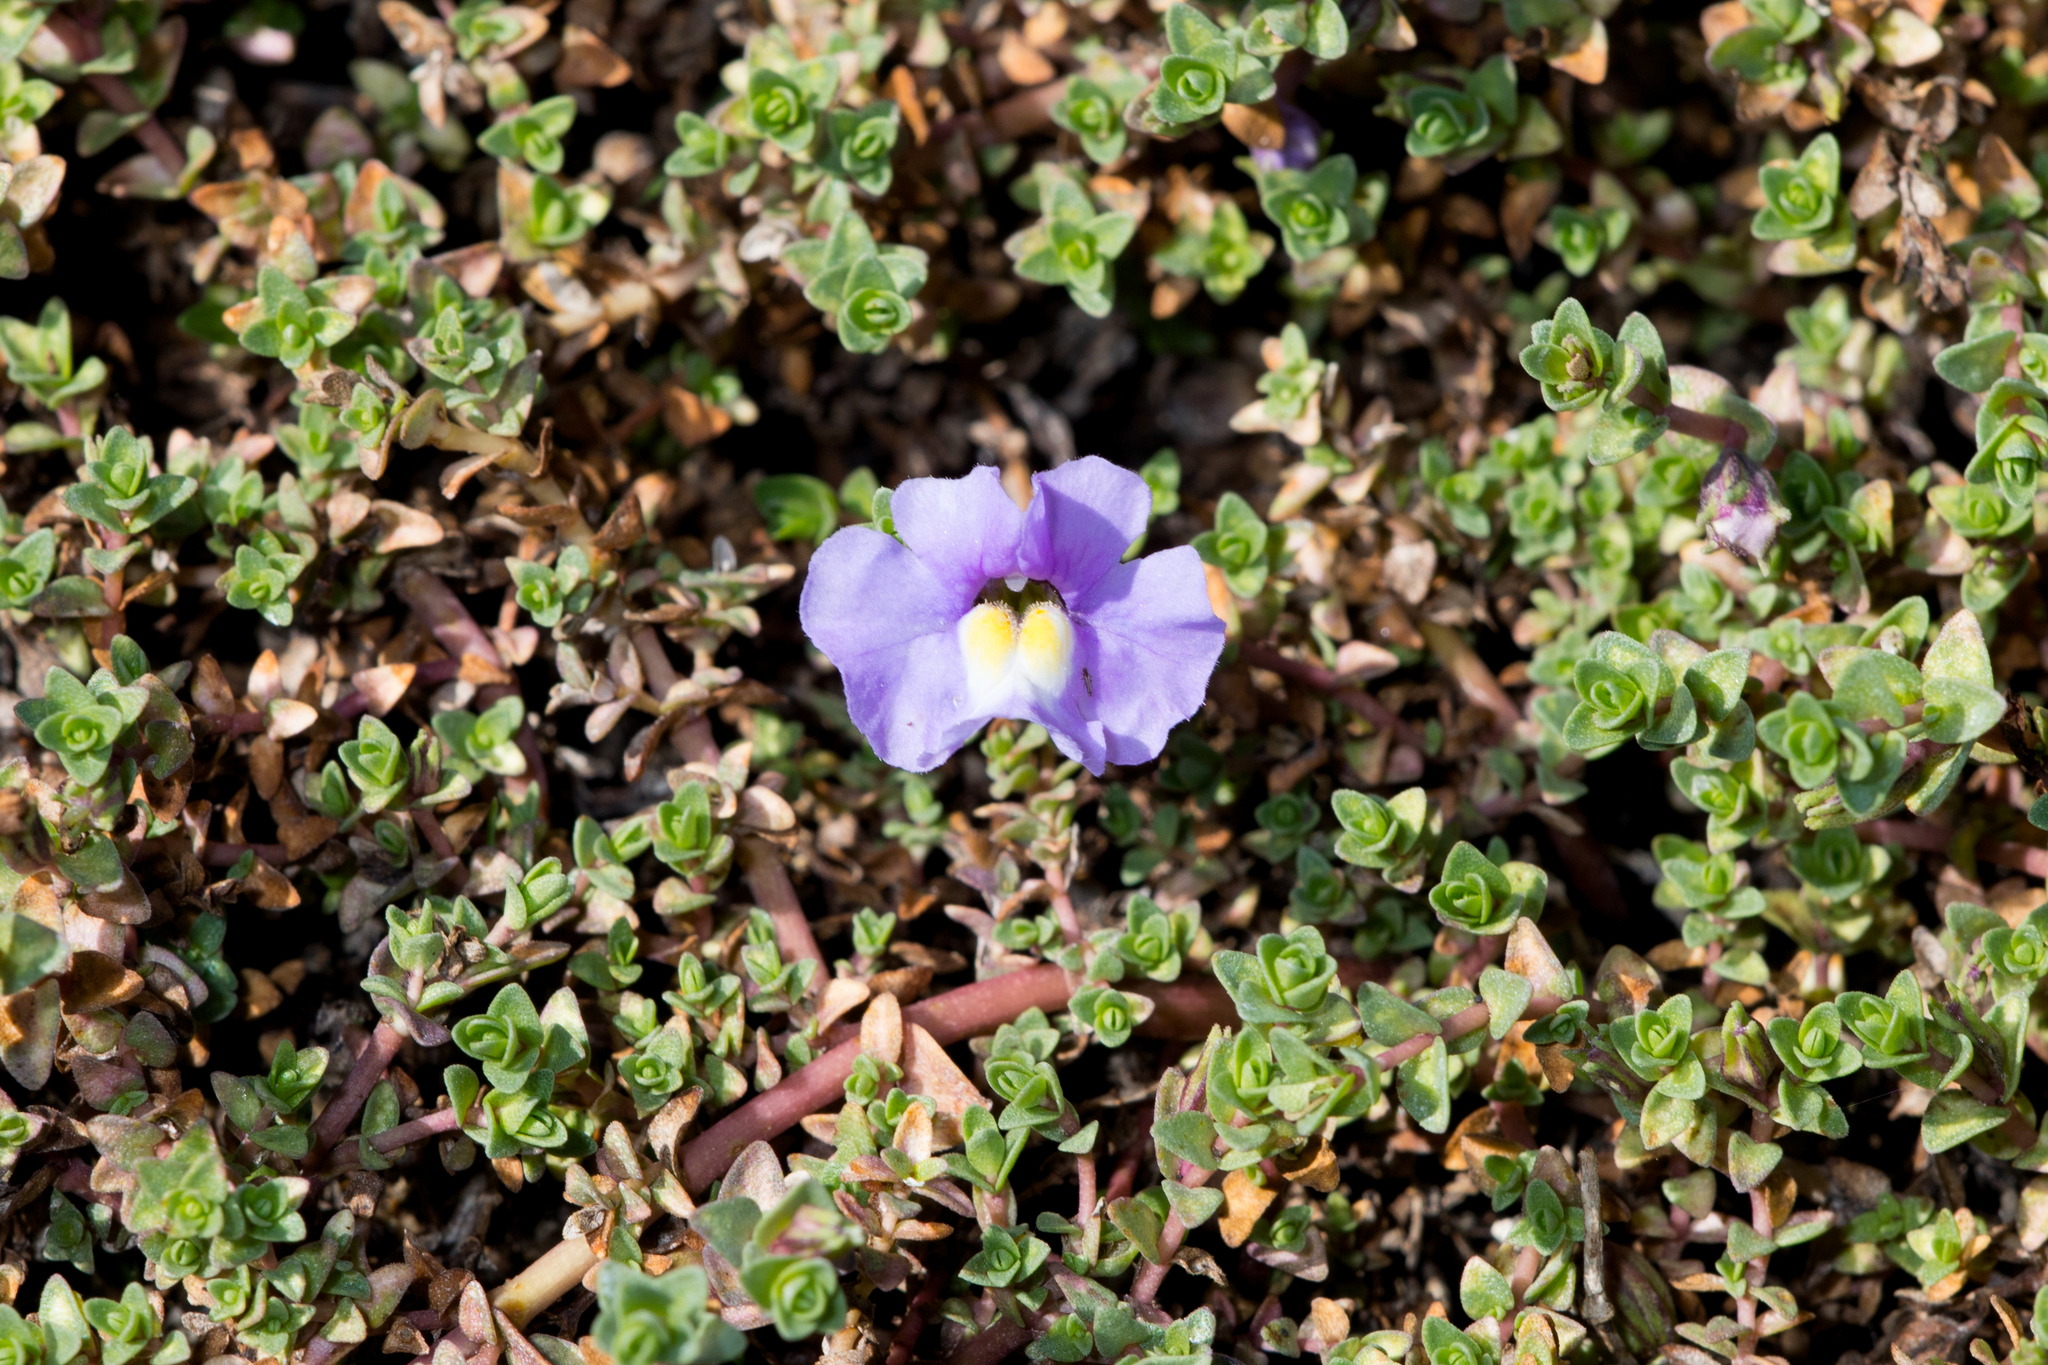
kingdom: Plantae
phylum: Tracheophyta
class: Magnoliopsida
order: Lamiales
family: Phrymaceae
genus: Thyridia
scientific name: Thyridia repens
